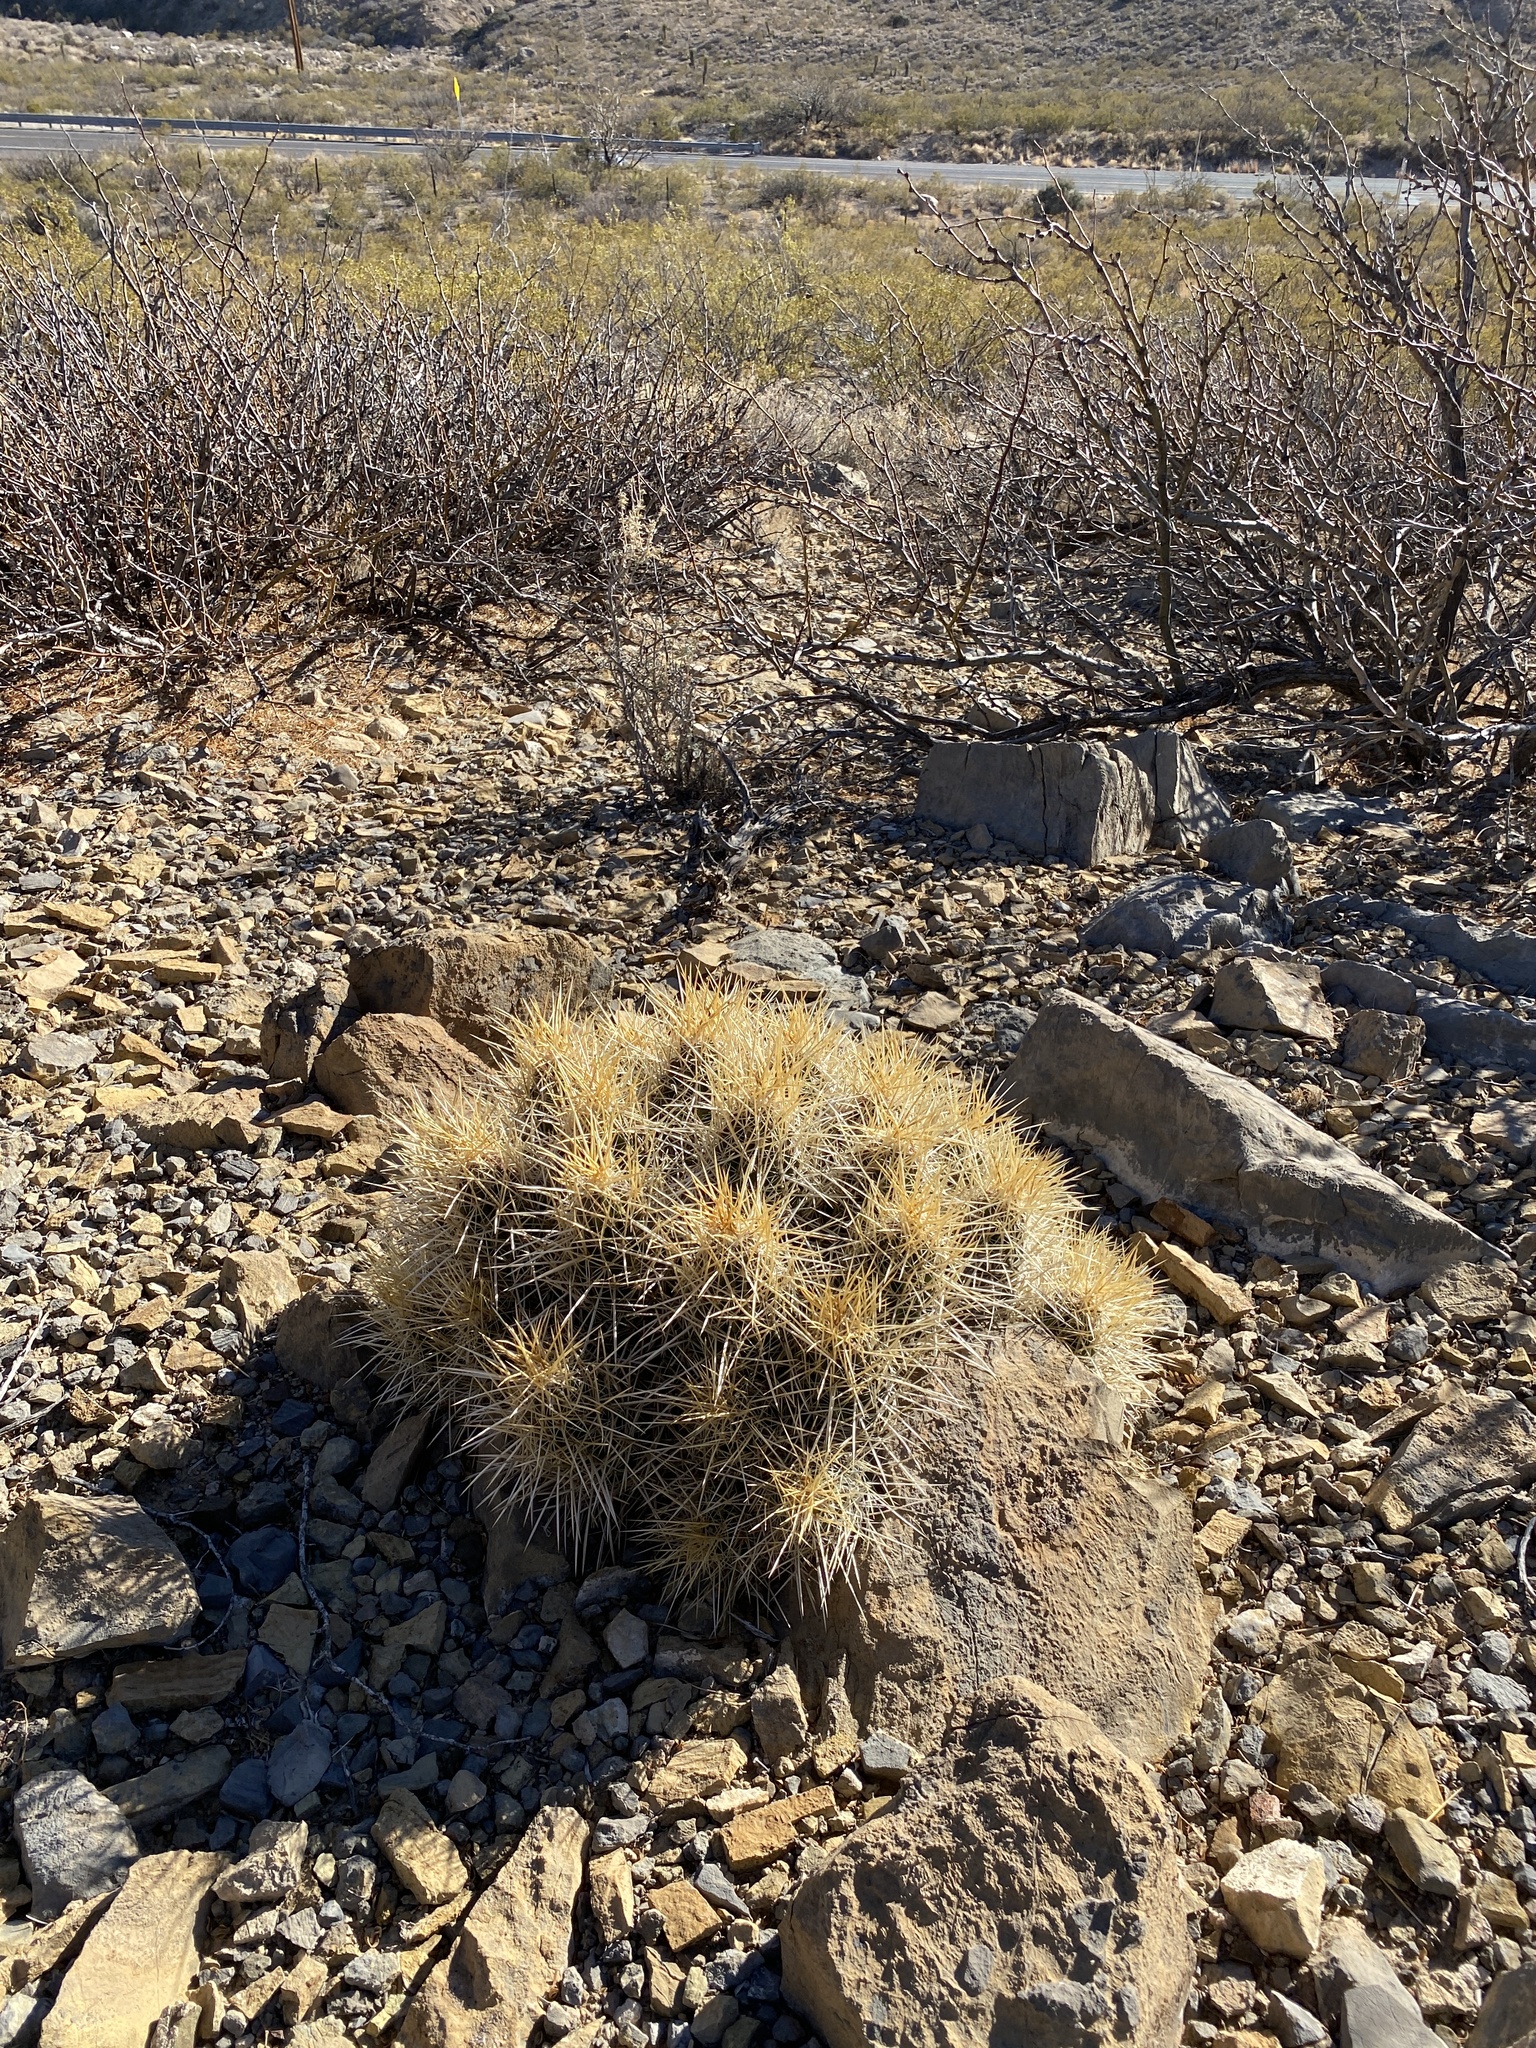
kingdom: Plantae
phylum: Tracheophyta
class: Magnoliopsida
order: Caryophyllales
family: Cactaceae
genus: Echinocereus
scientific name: Echinocereus stramineus
